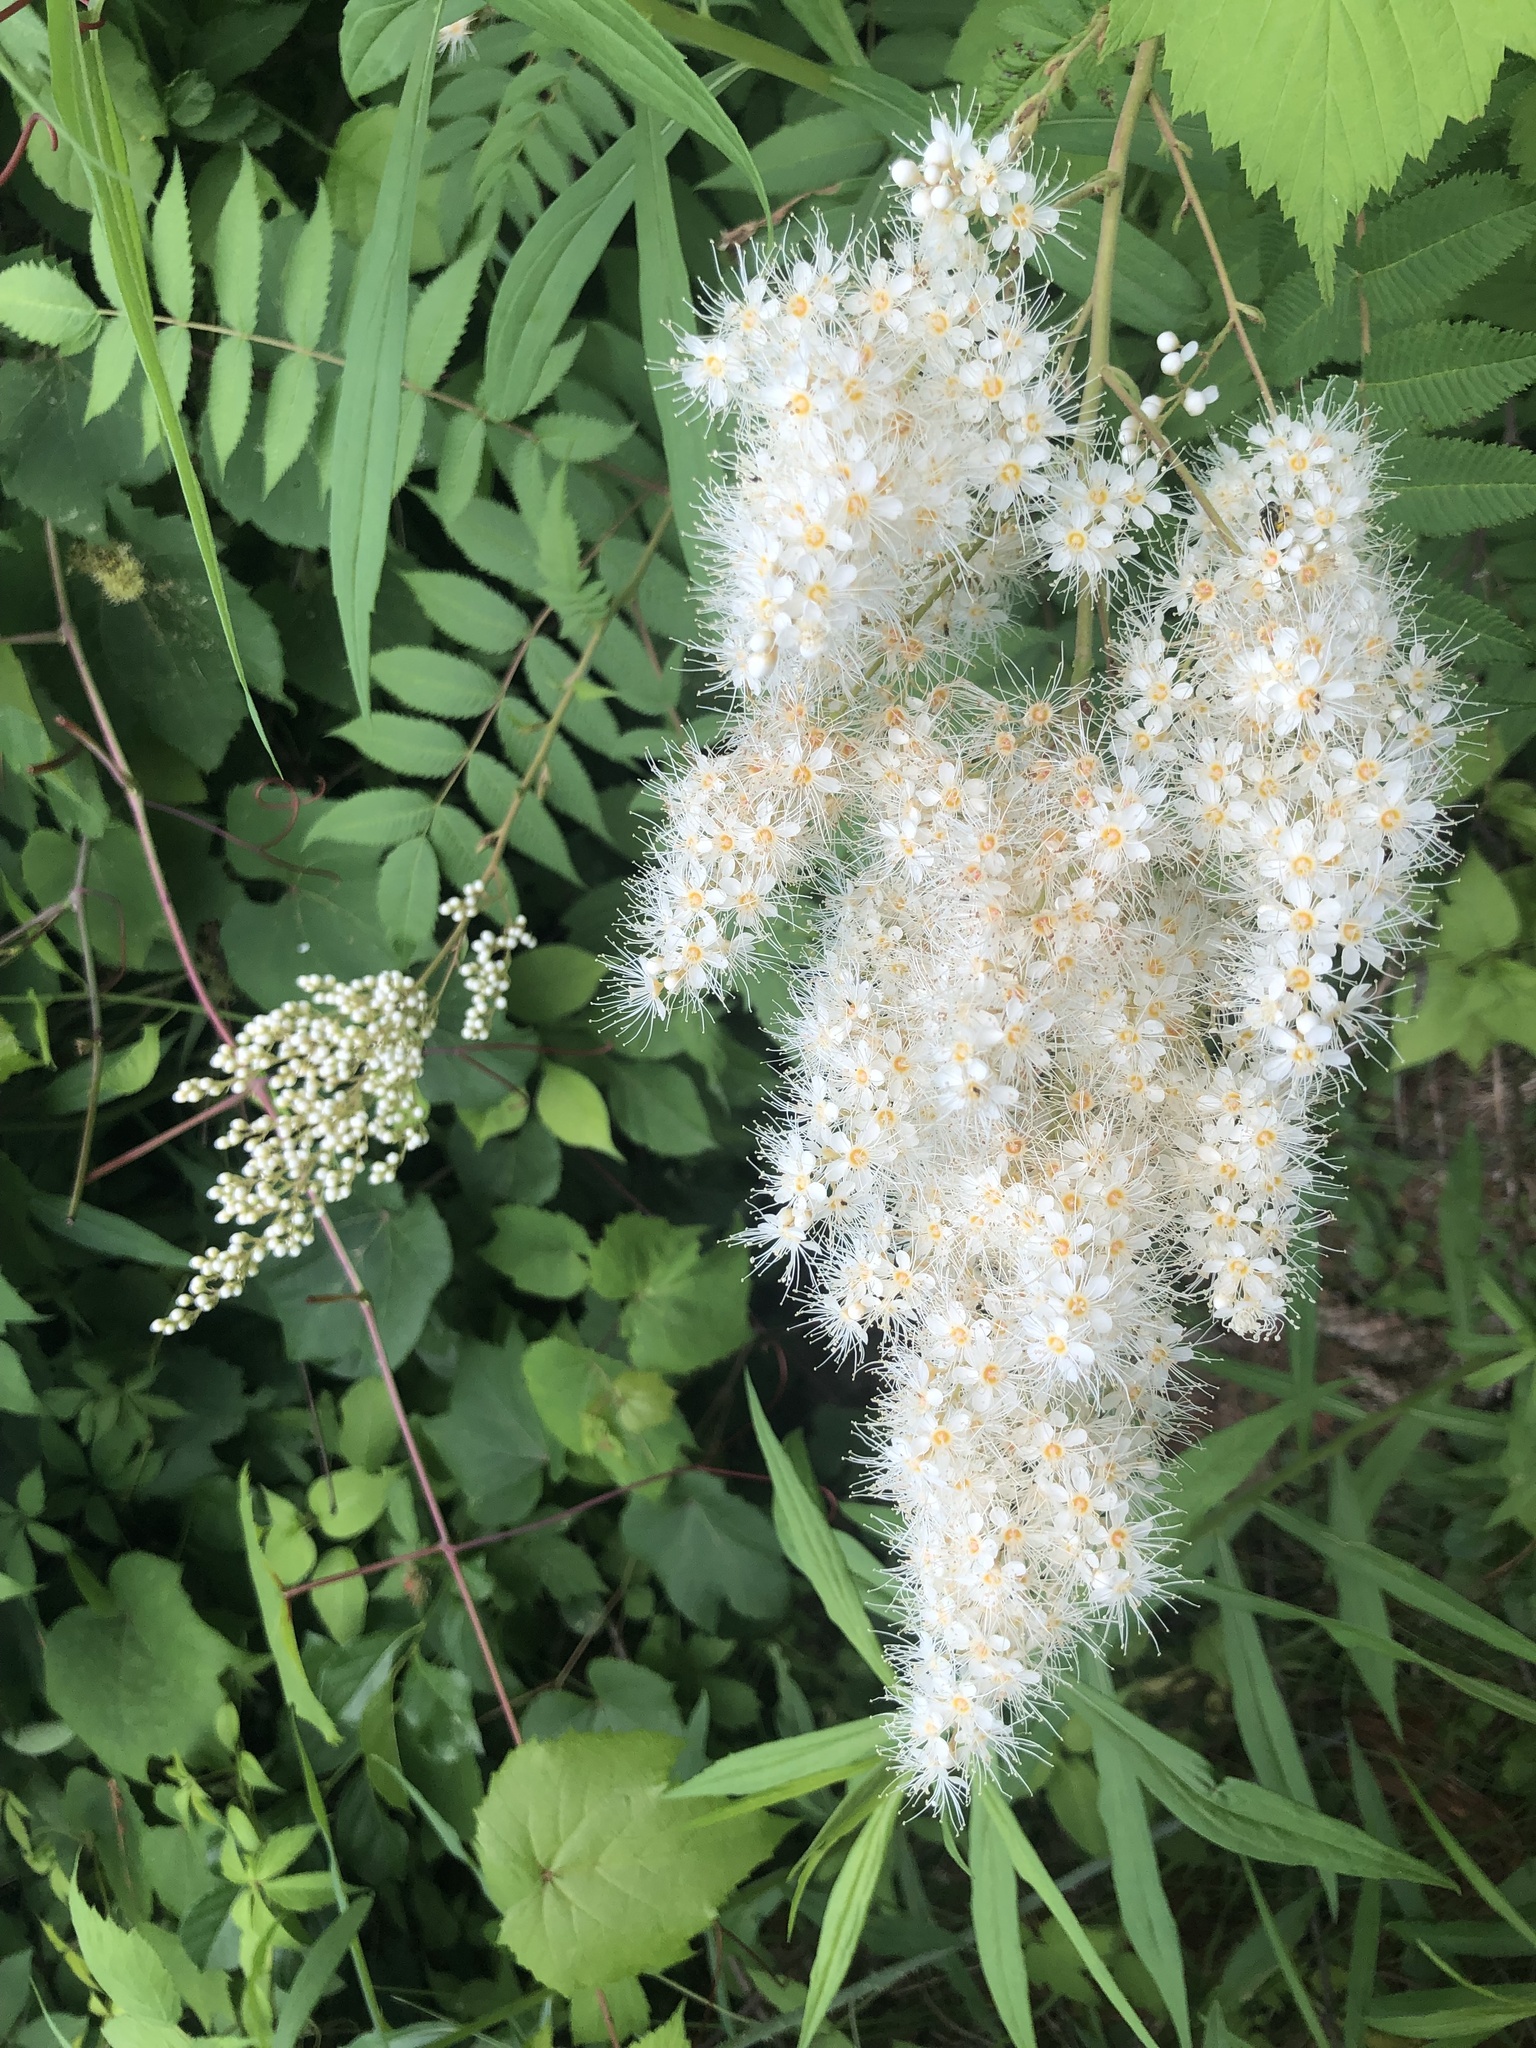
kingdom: Plantae
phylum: Tracheophyta
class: Magnoliopsida
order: Rosales
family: Rosaceae
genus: Sorbaria
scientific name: Sorbaria sorbifolia
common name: False spiraea
